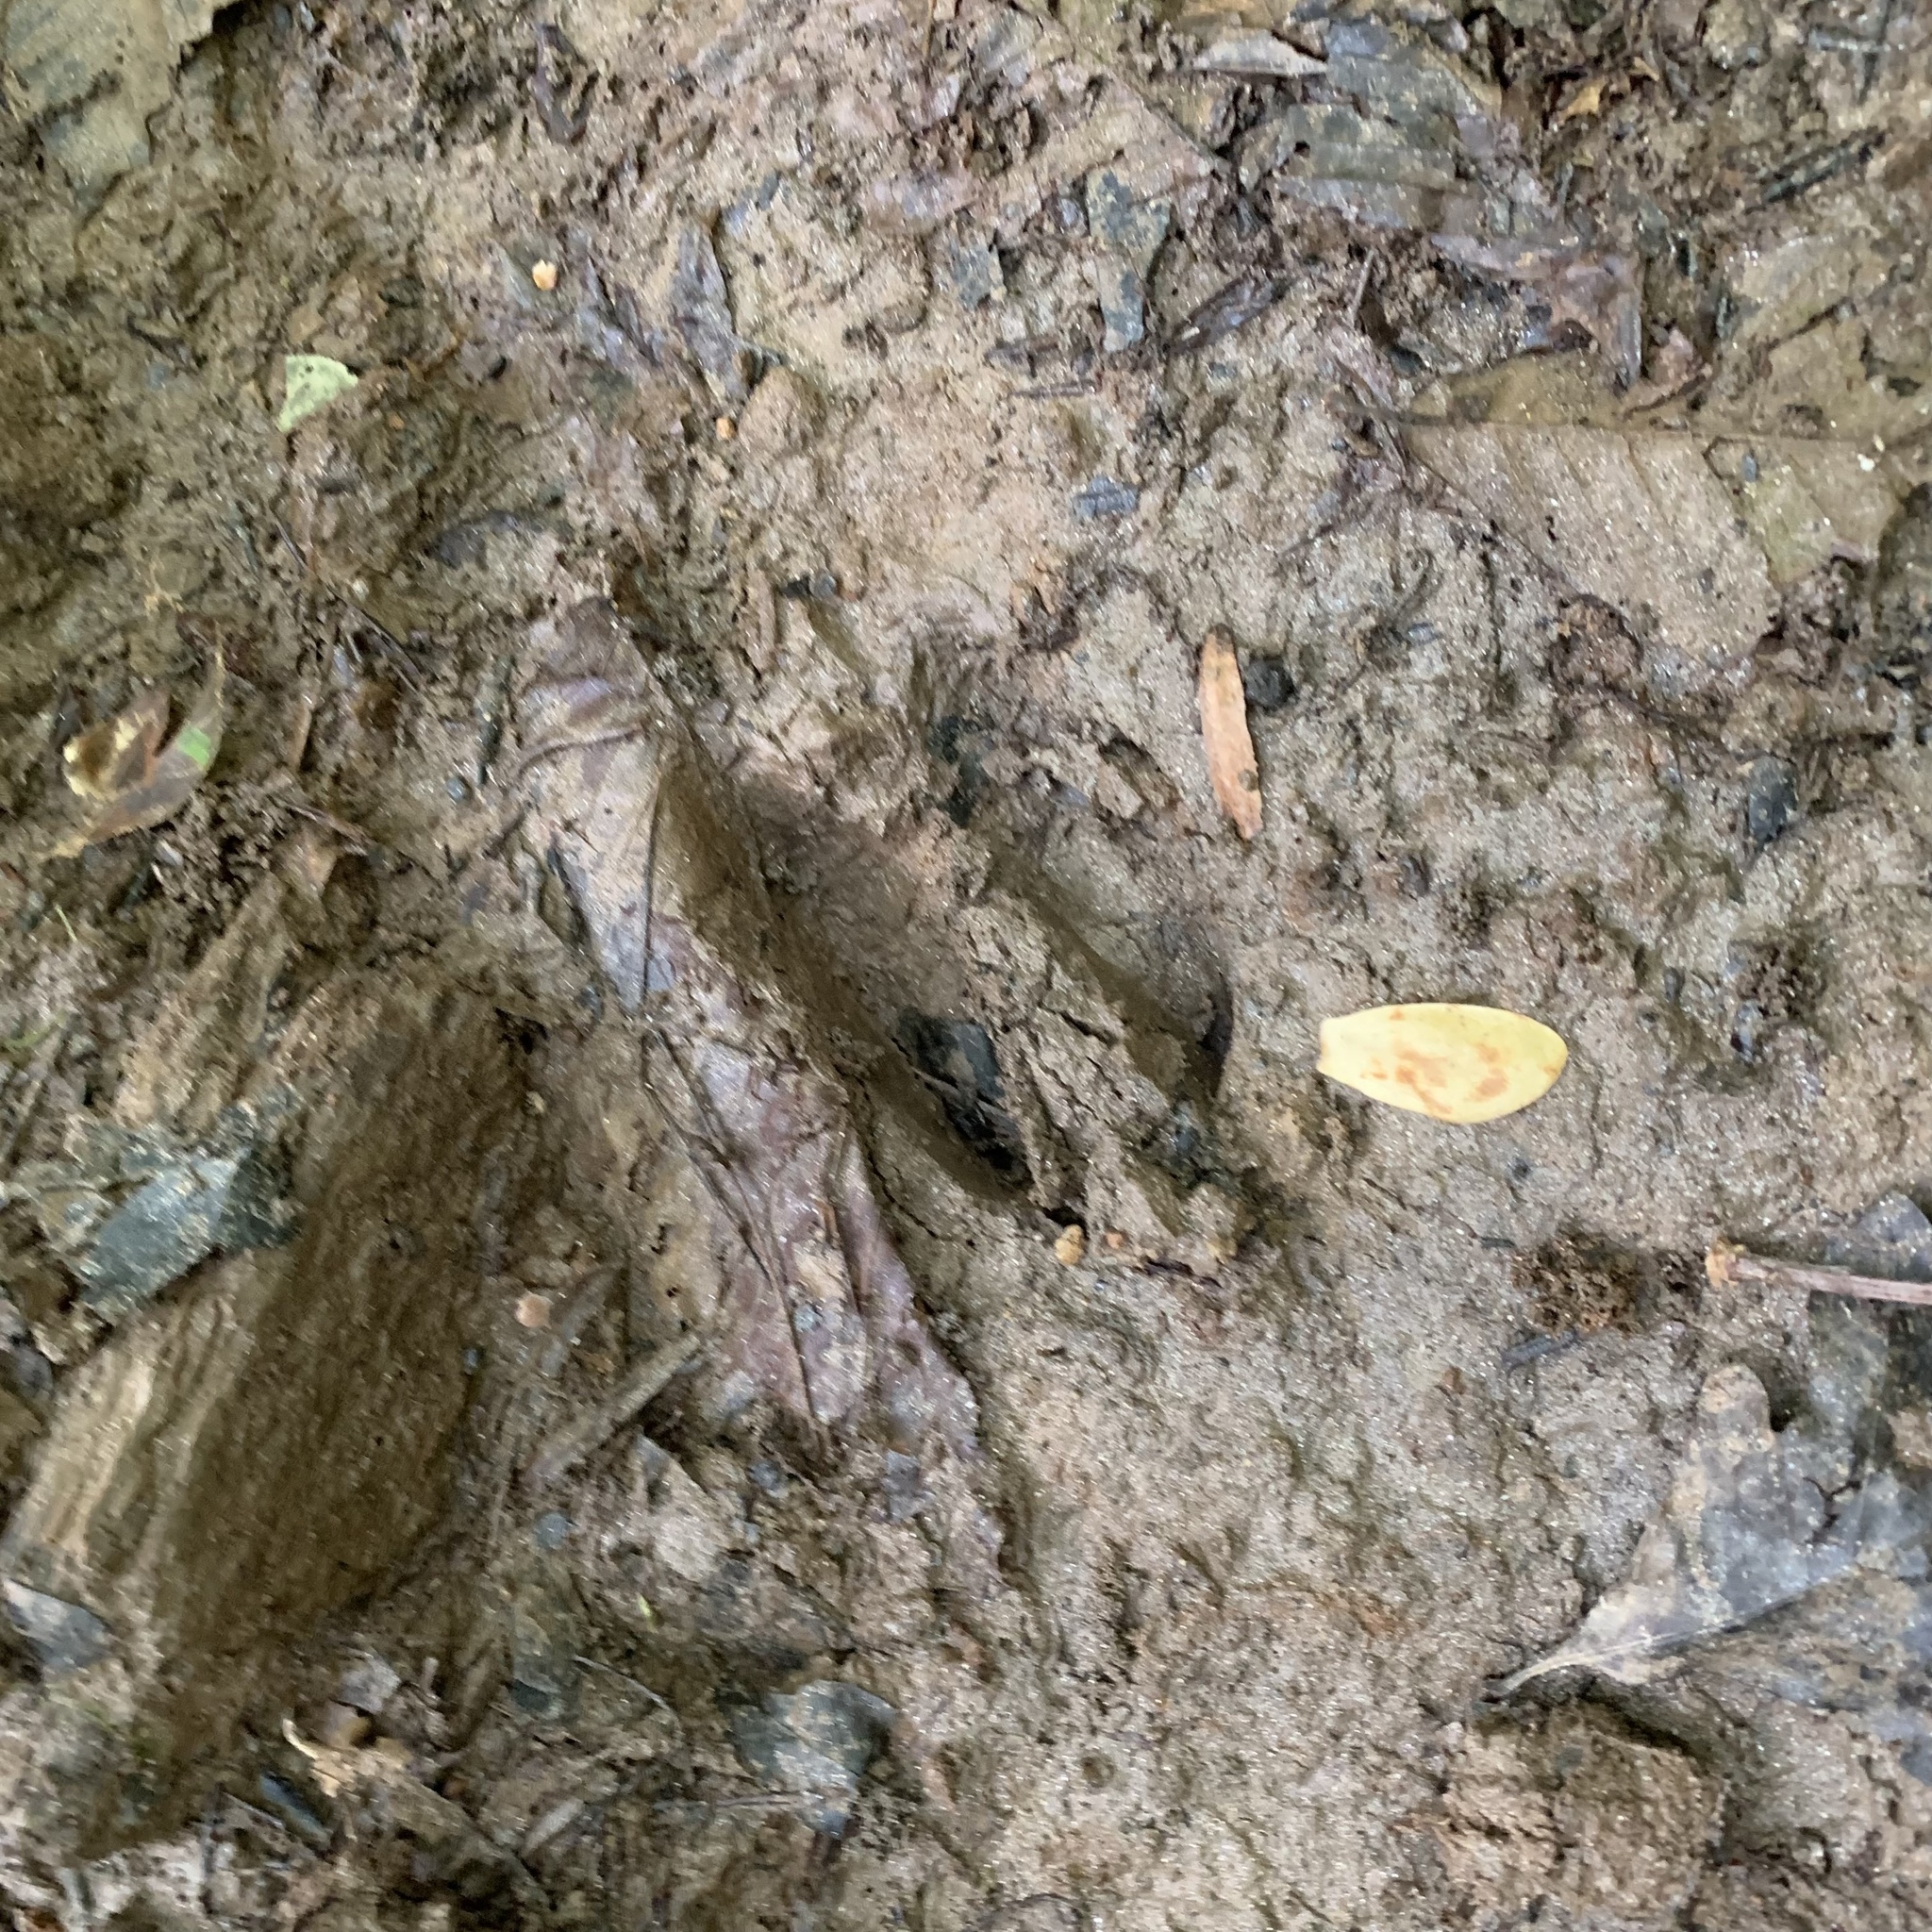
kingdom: Animalia
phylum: Chordata
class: Mammalia
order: Artiodactyla
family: Cervidae
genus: Odocoileus
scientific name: Odocoileus virginianus
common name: White-tailed deer
